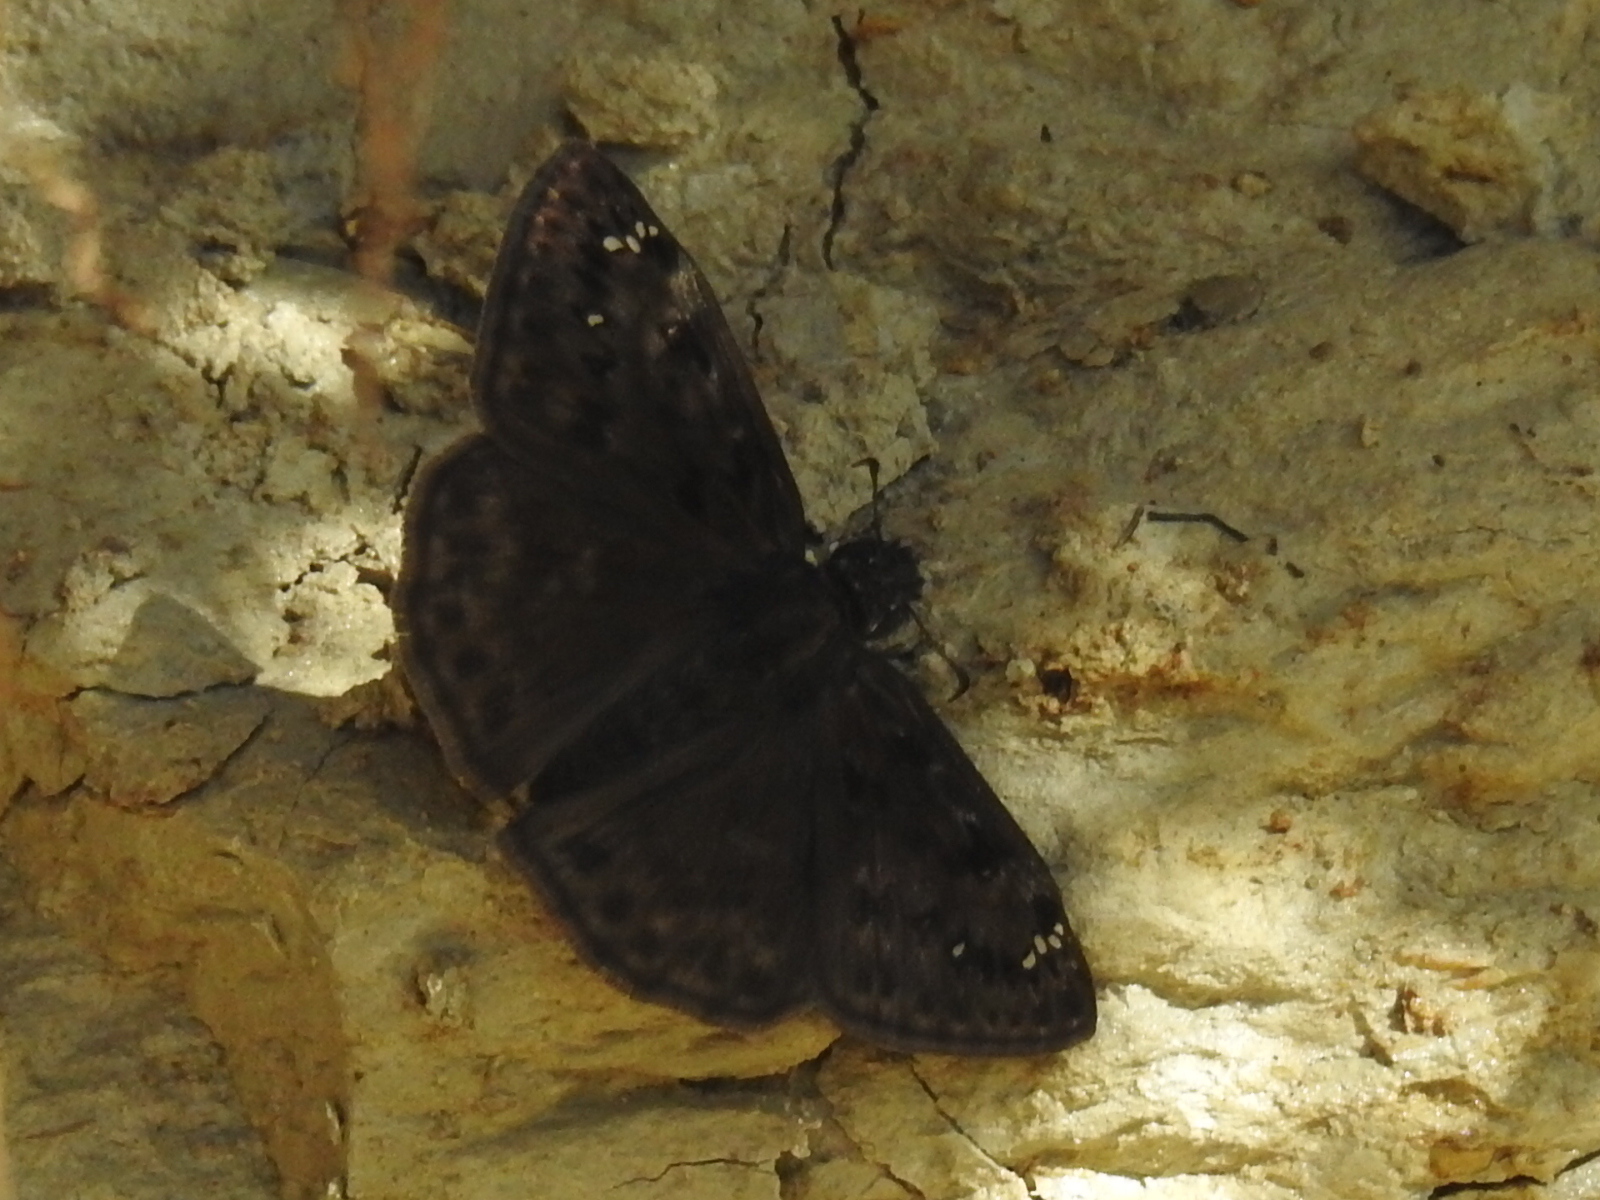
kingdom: Animalia
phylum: Arthropoda
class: Insecta
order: Lepidoptera
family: Hesperiidae
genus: Erynnis
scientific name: Erynnis horatius
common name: Horace's duskywing
